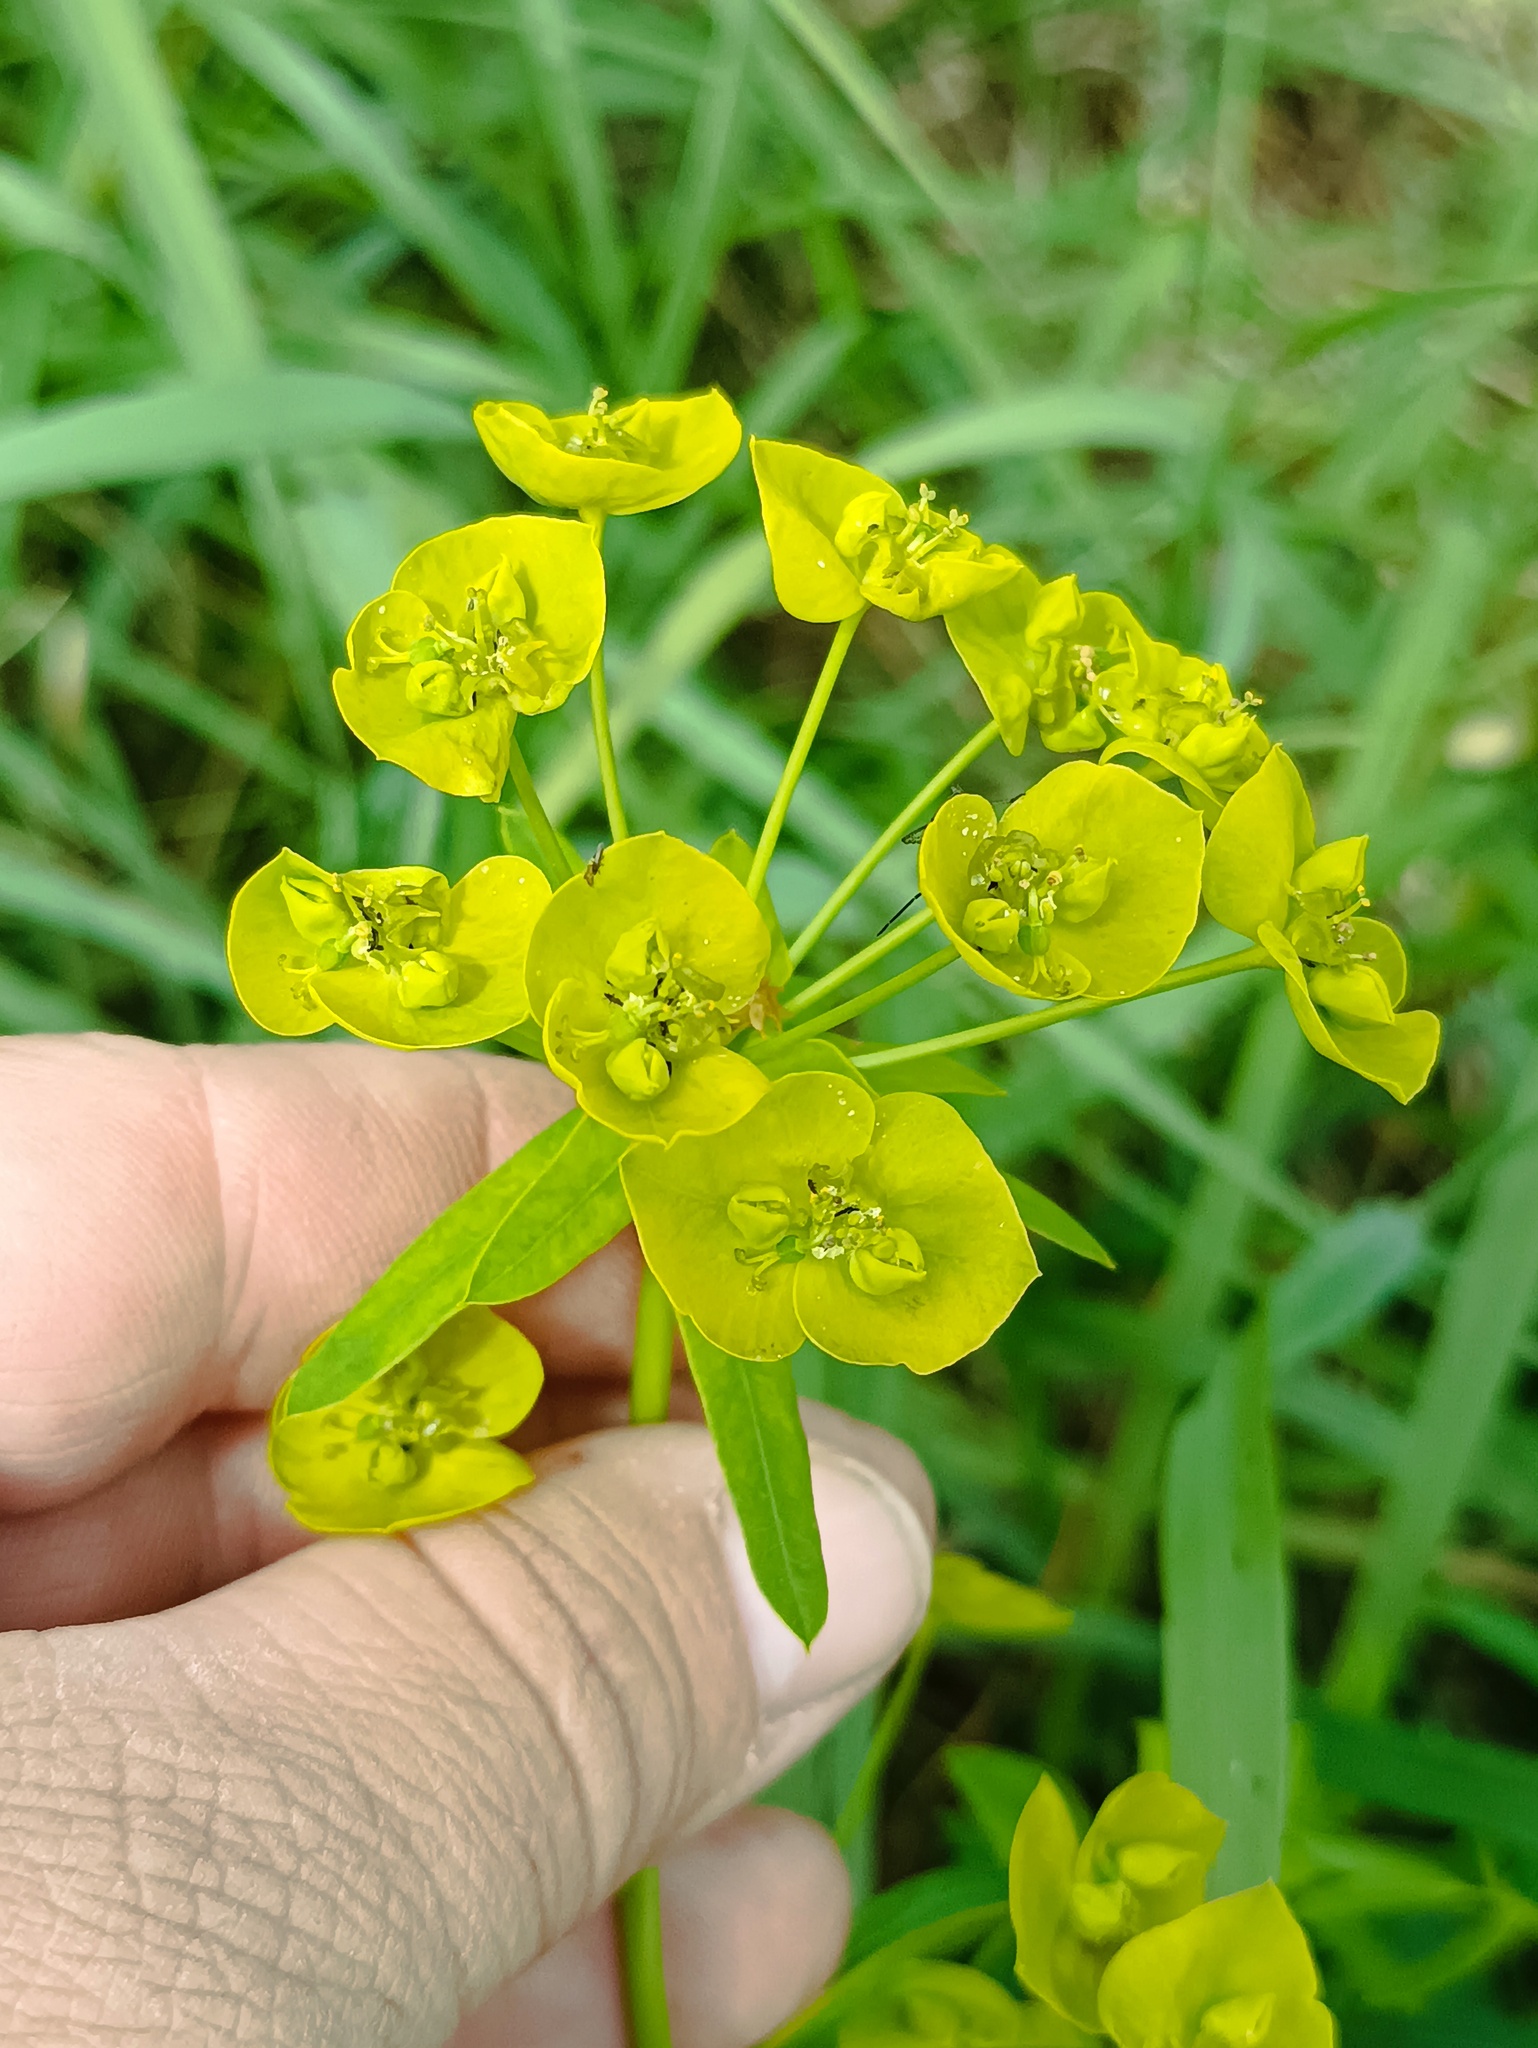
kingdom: Plantae
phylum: Tracheophyta
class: Magnoliopsida
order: Malpighiales
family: Euphorbiaceae
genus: Euphorbia
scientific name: Euphorbia virgata
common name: Leafy spurge
